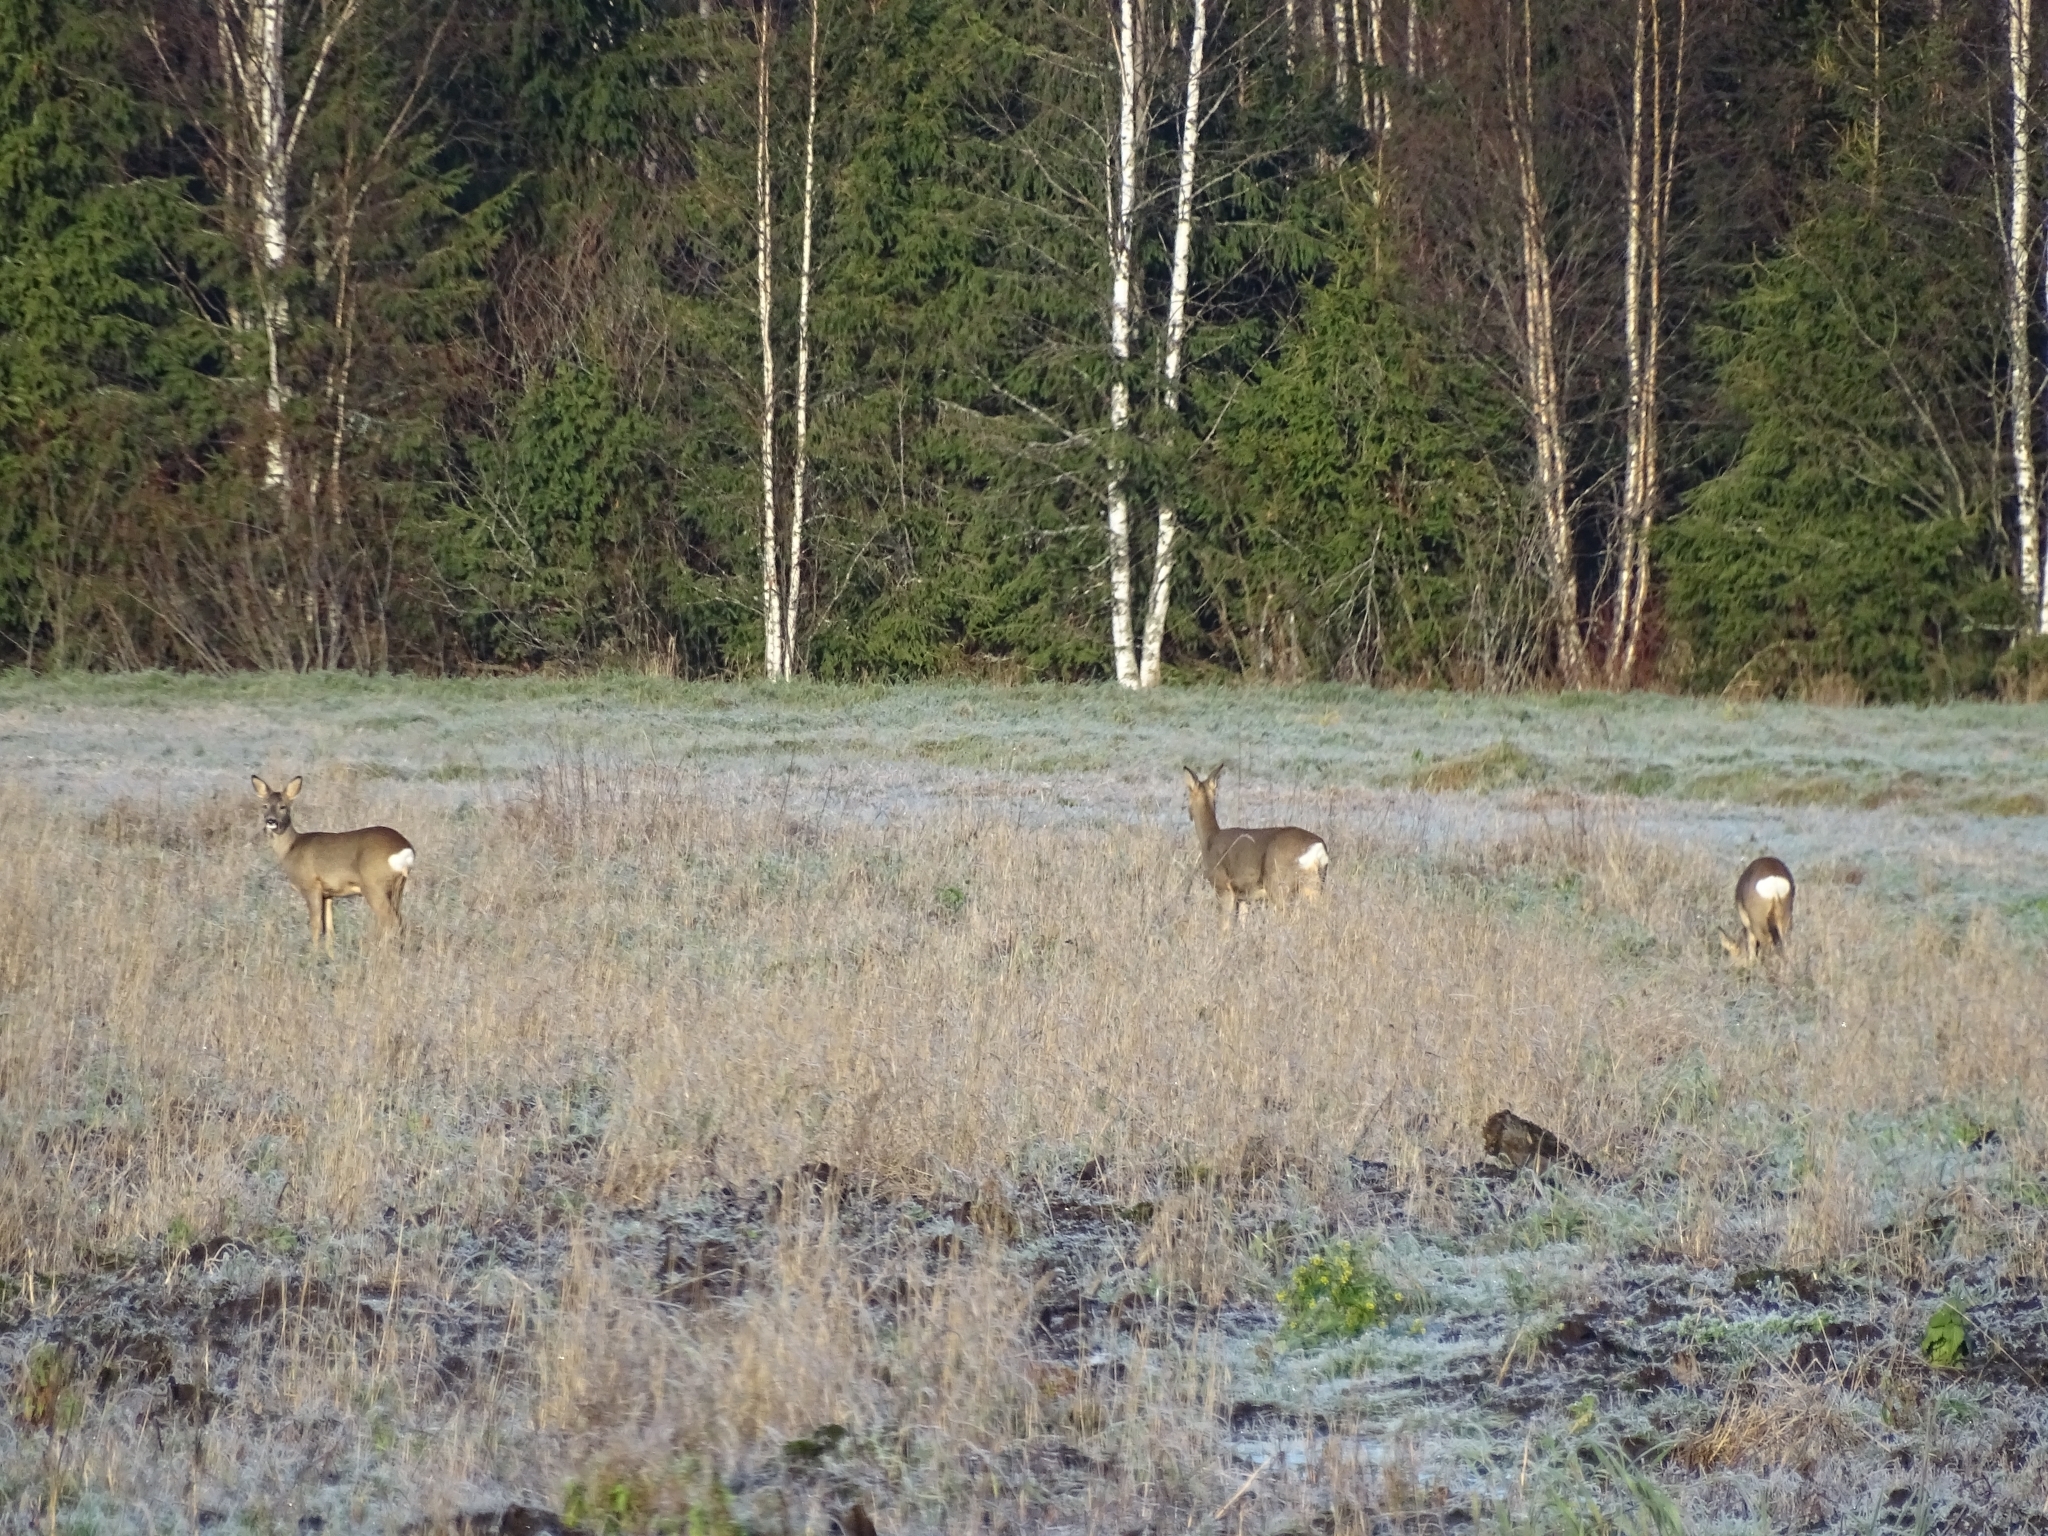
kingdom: Animalia
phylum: Chordata
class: Mammalia
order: Artiodactyla
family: Cervidae
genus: Capreolus
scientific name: Capreolus capreolus
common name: Western roe deer
